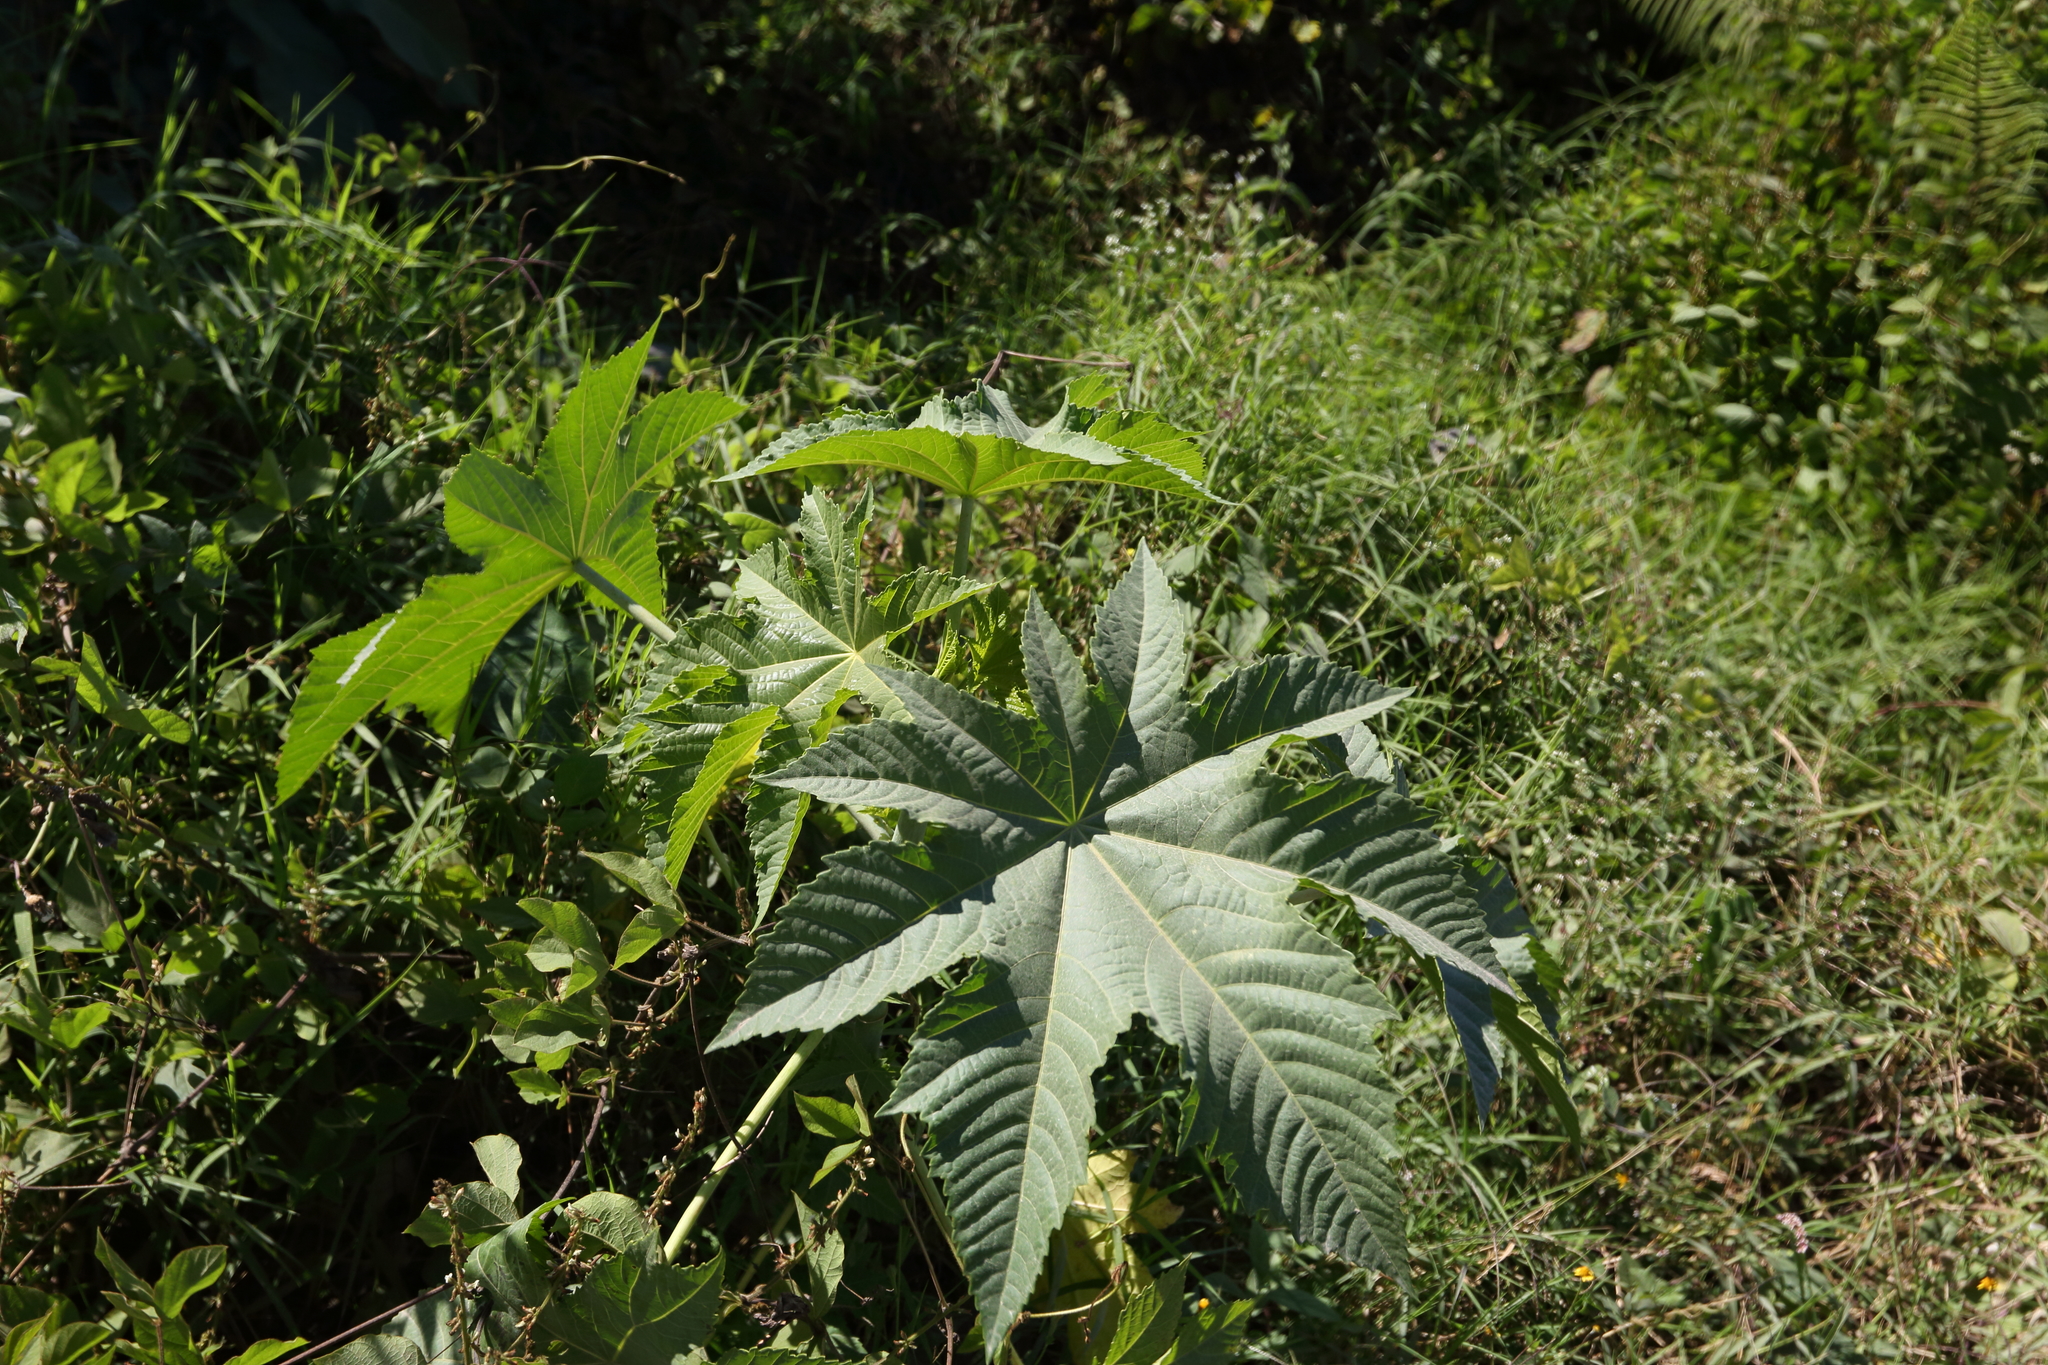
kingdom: Plantae
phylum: Tracheophyta
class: Magnoliopsida
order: Malpighiales
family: Euphorbiaceae
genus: Ricinus
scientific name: Ricinus communis
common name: Castor-oil-plant
